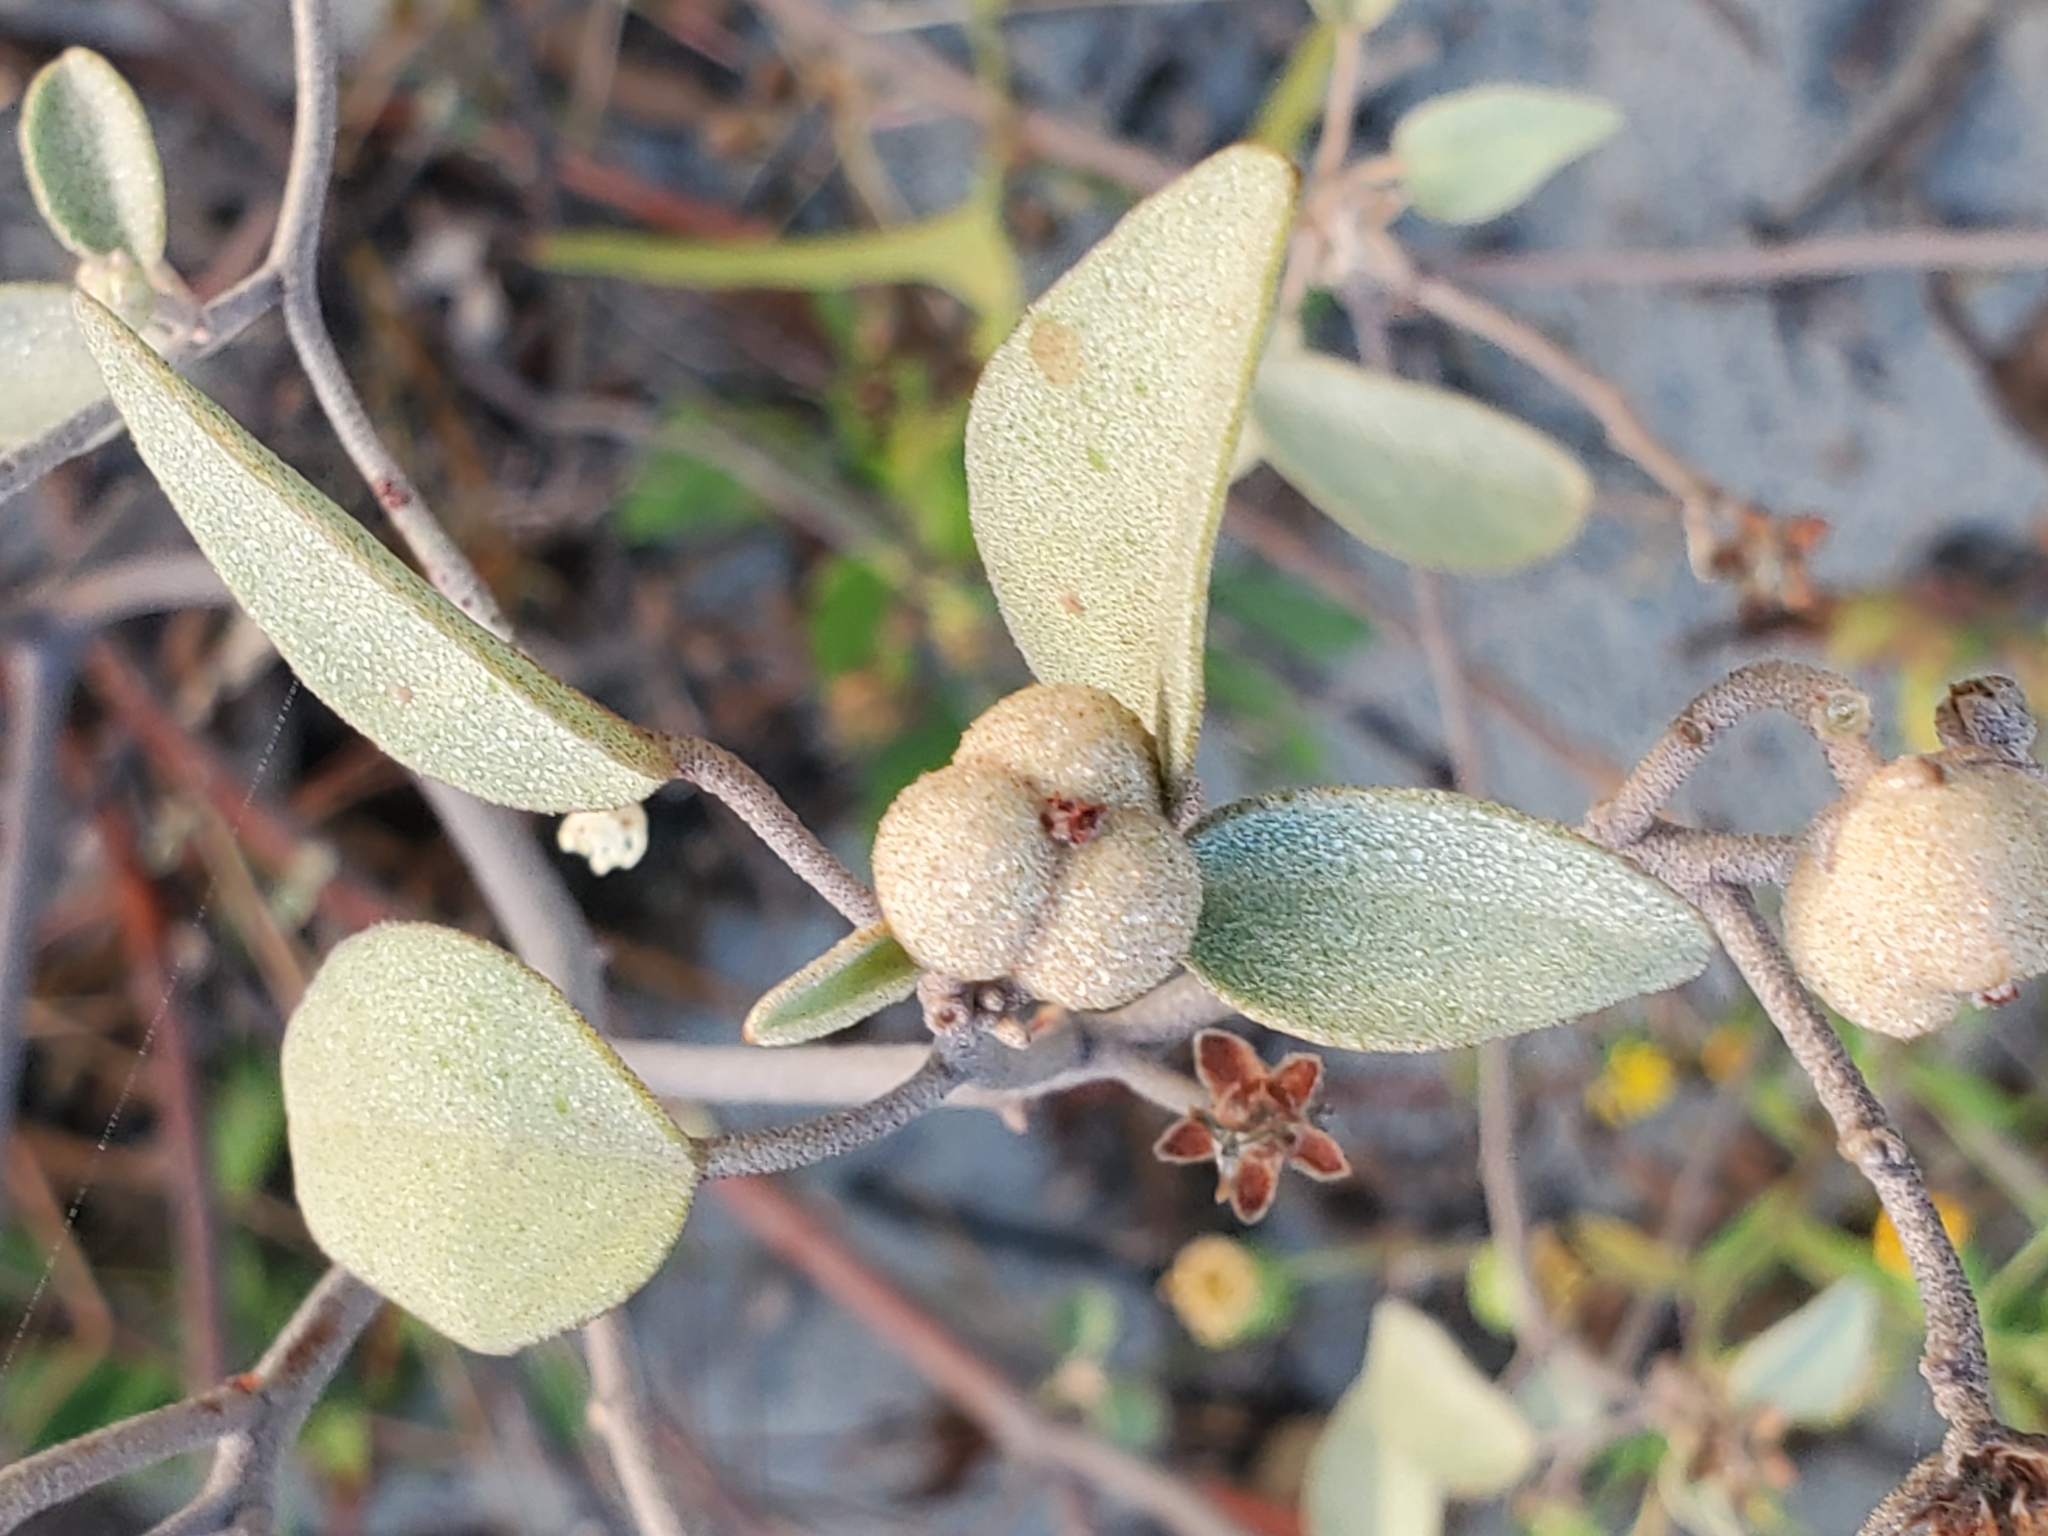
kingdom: Plantae
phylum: Tracheophyta
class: Magnoliopsida
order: Malpighiales
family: Euphorbiaceae
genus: Croton
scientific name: Croton punctatus
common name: Beach-tea
